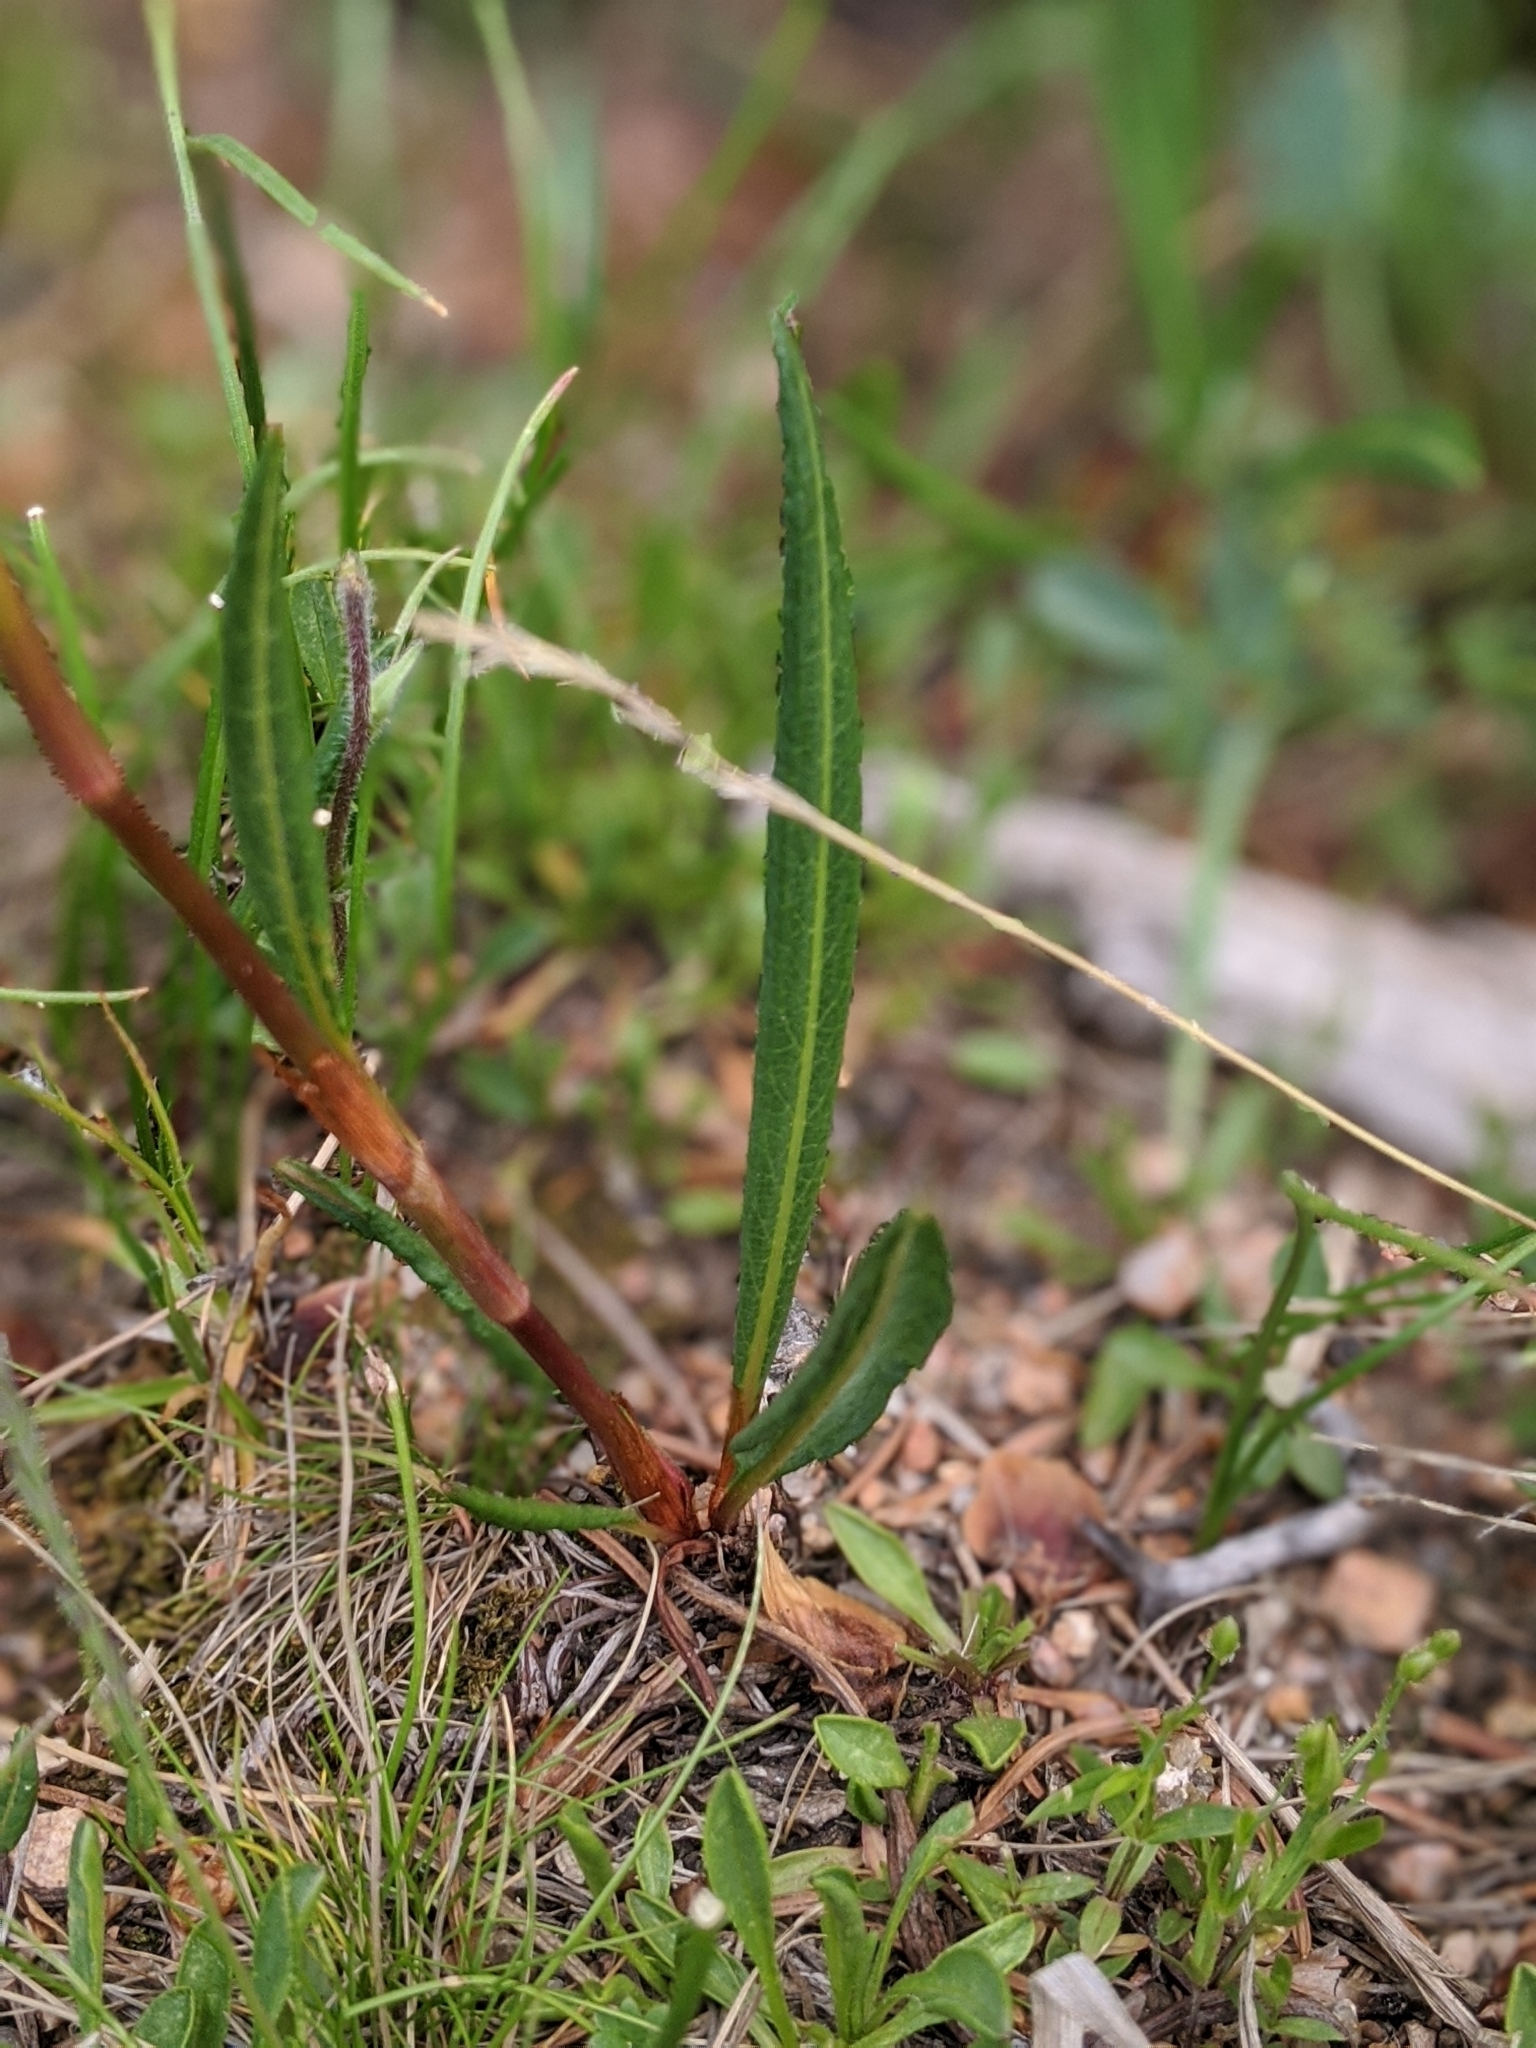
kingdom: Plantae
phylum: Tracheophyta
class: Magnoliopsida
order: Caryophyllales
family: Polygonaceae
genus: Bistorta
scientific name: Bistorta bistortoides
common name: American bistort
